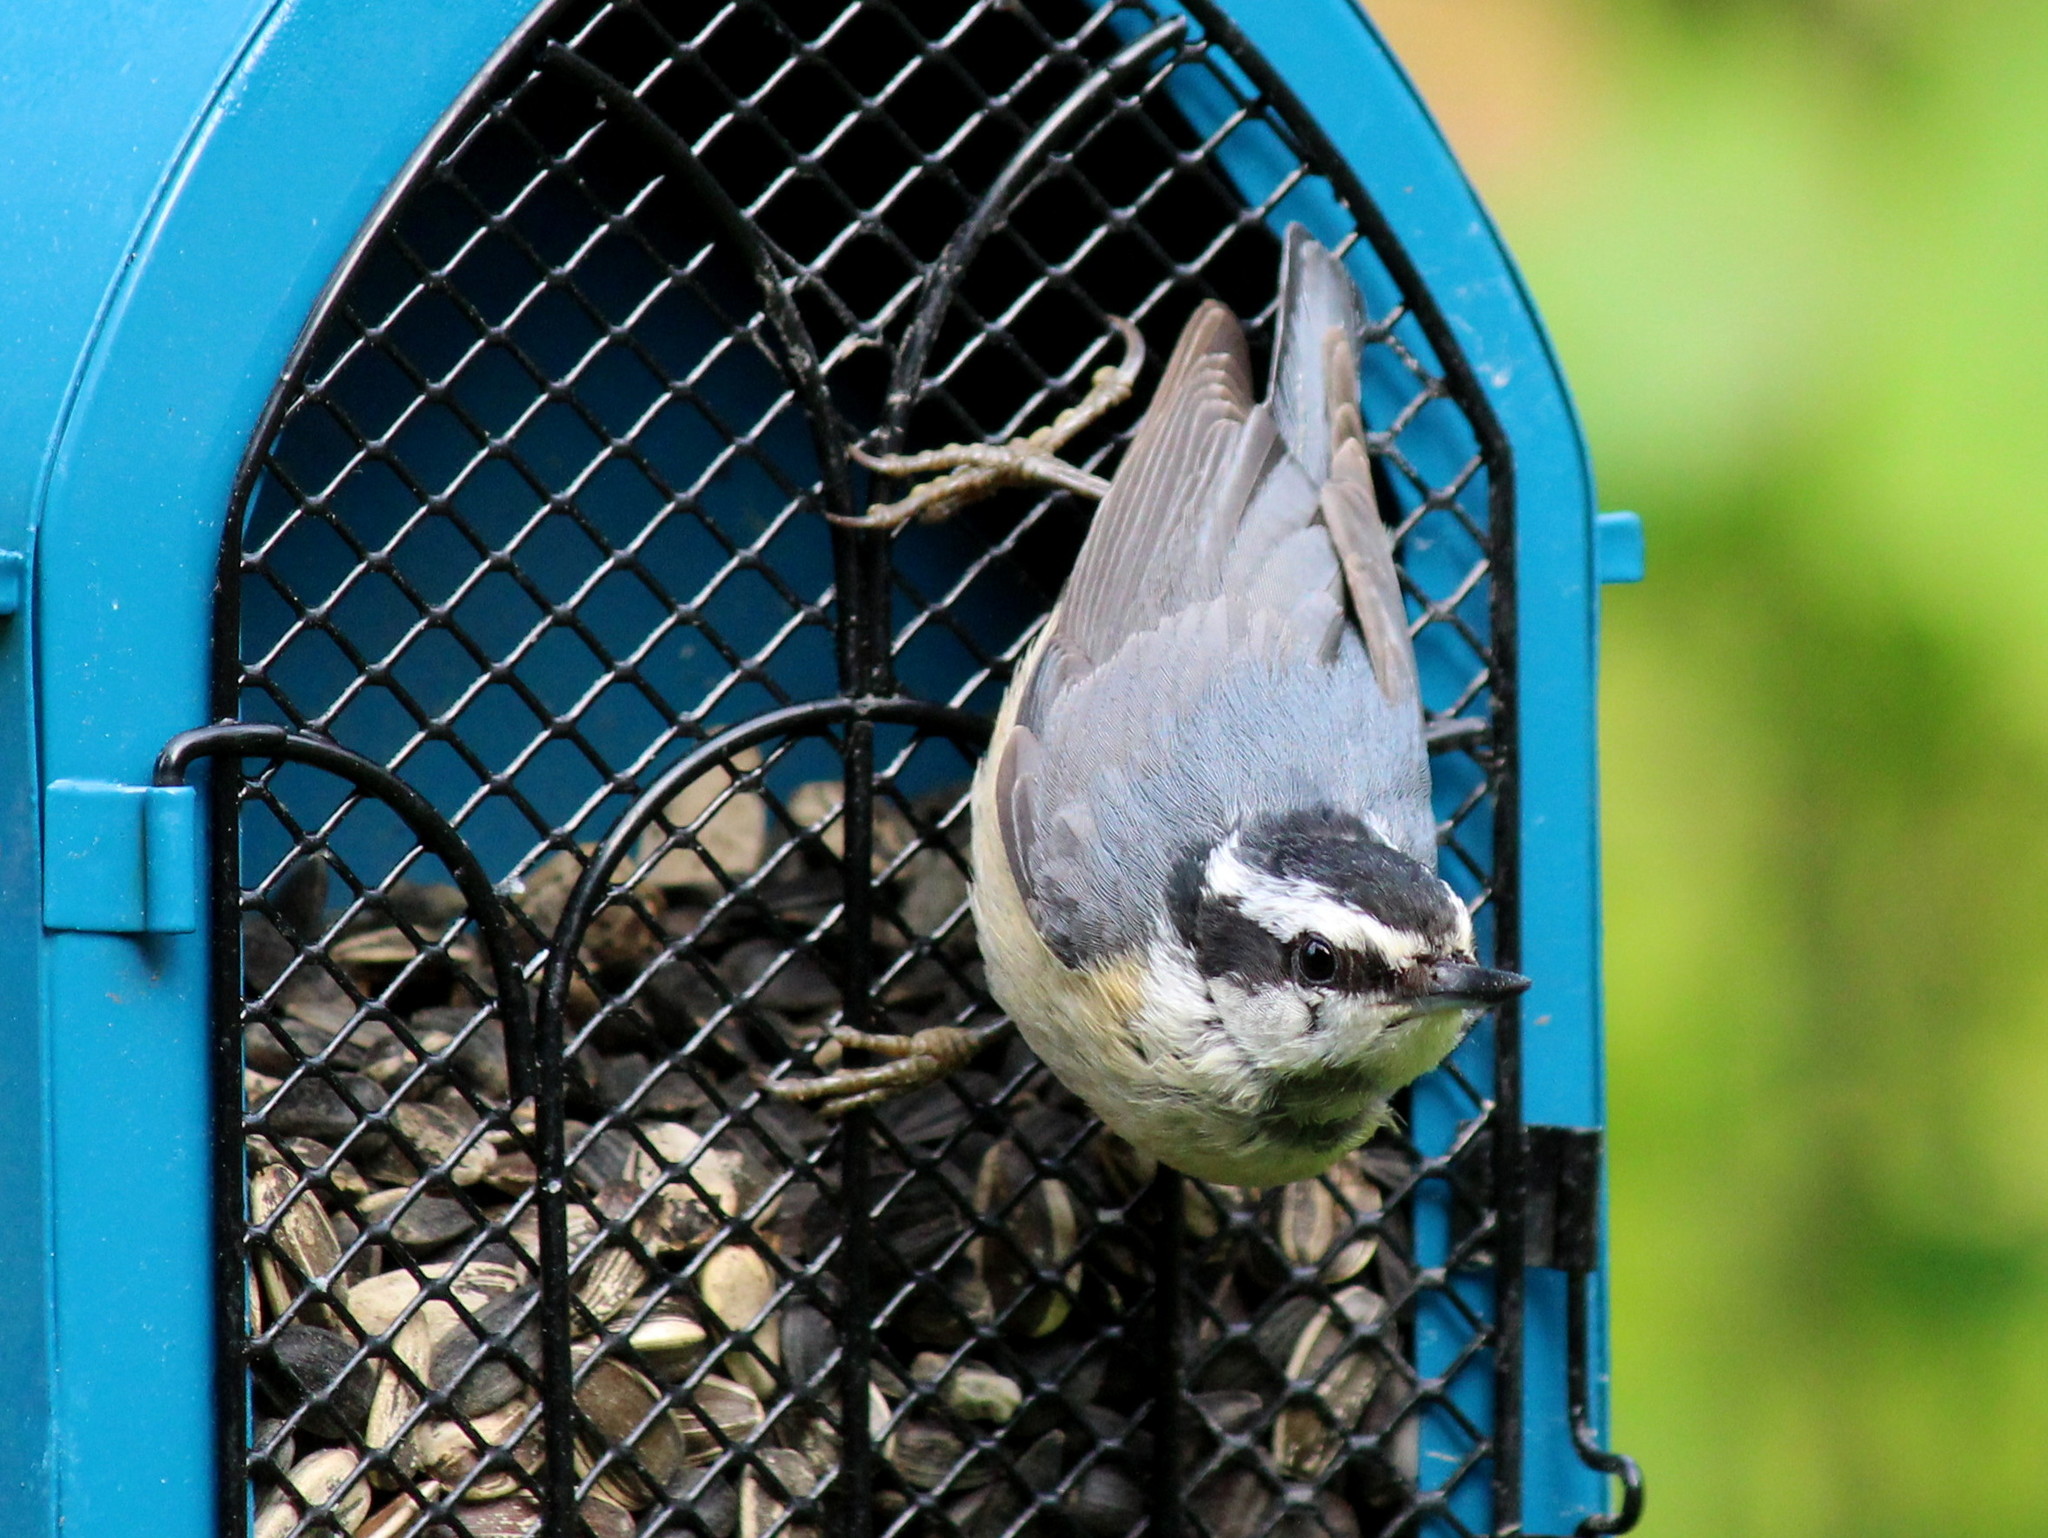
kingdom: Animalia
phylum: Chordata
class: Aves
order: Passeriformes
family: Sittidae
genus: Sitta
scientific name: Sitta canadensis
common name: Red-breasted nuthatch
